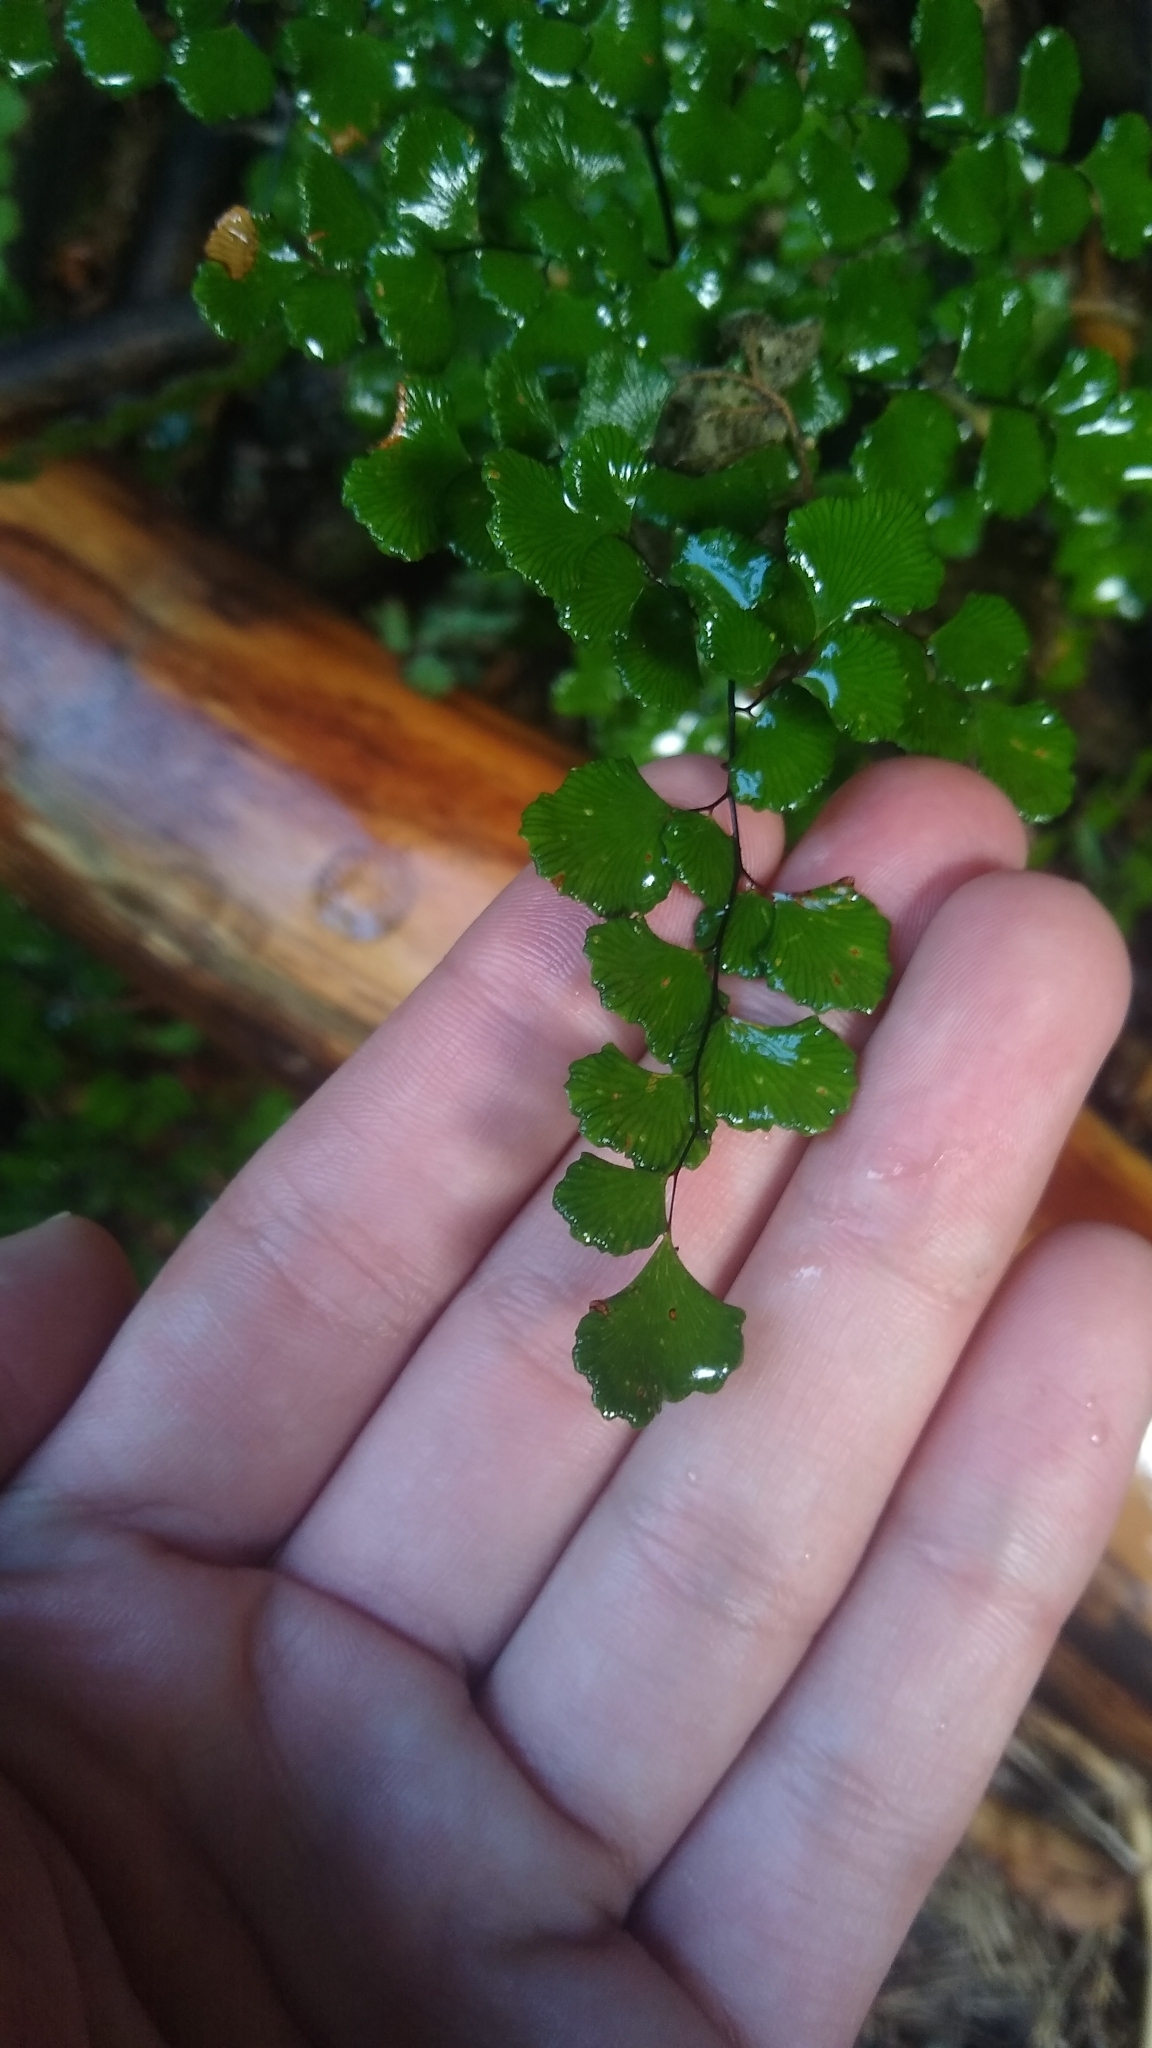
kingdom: Plantae
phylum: Tracheophyta
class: Polypodiopsida
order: Polypodiales
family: Pteridaceae
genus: Adiantum
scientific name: Adiantum chilense
